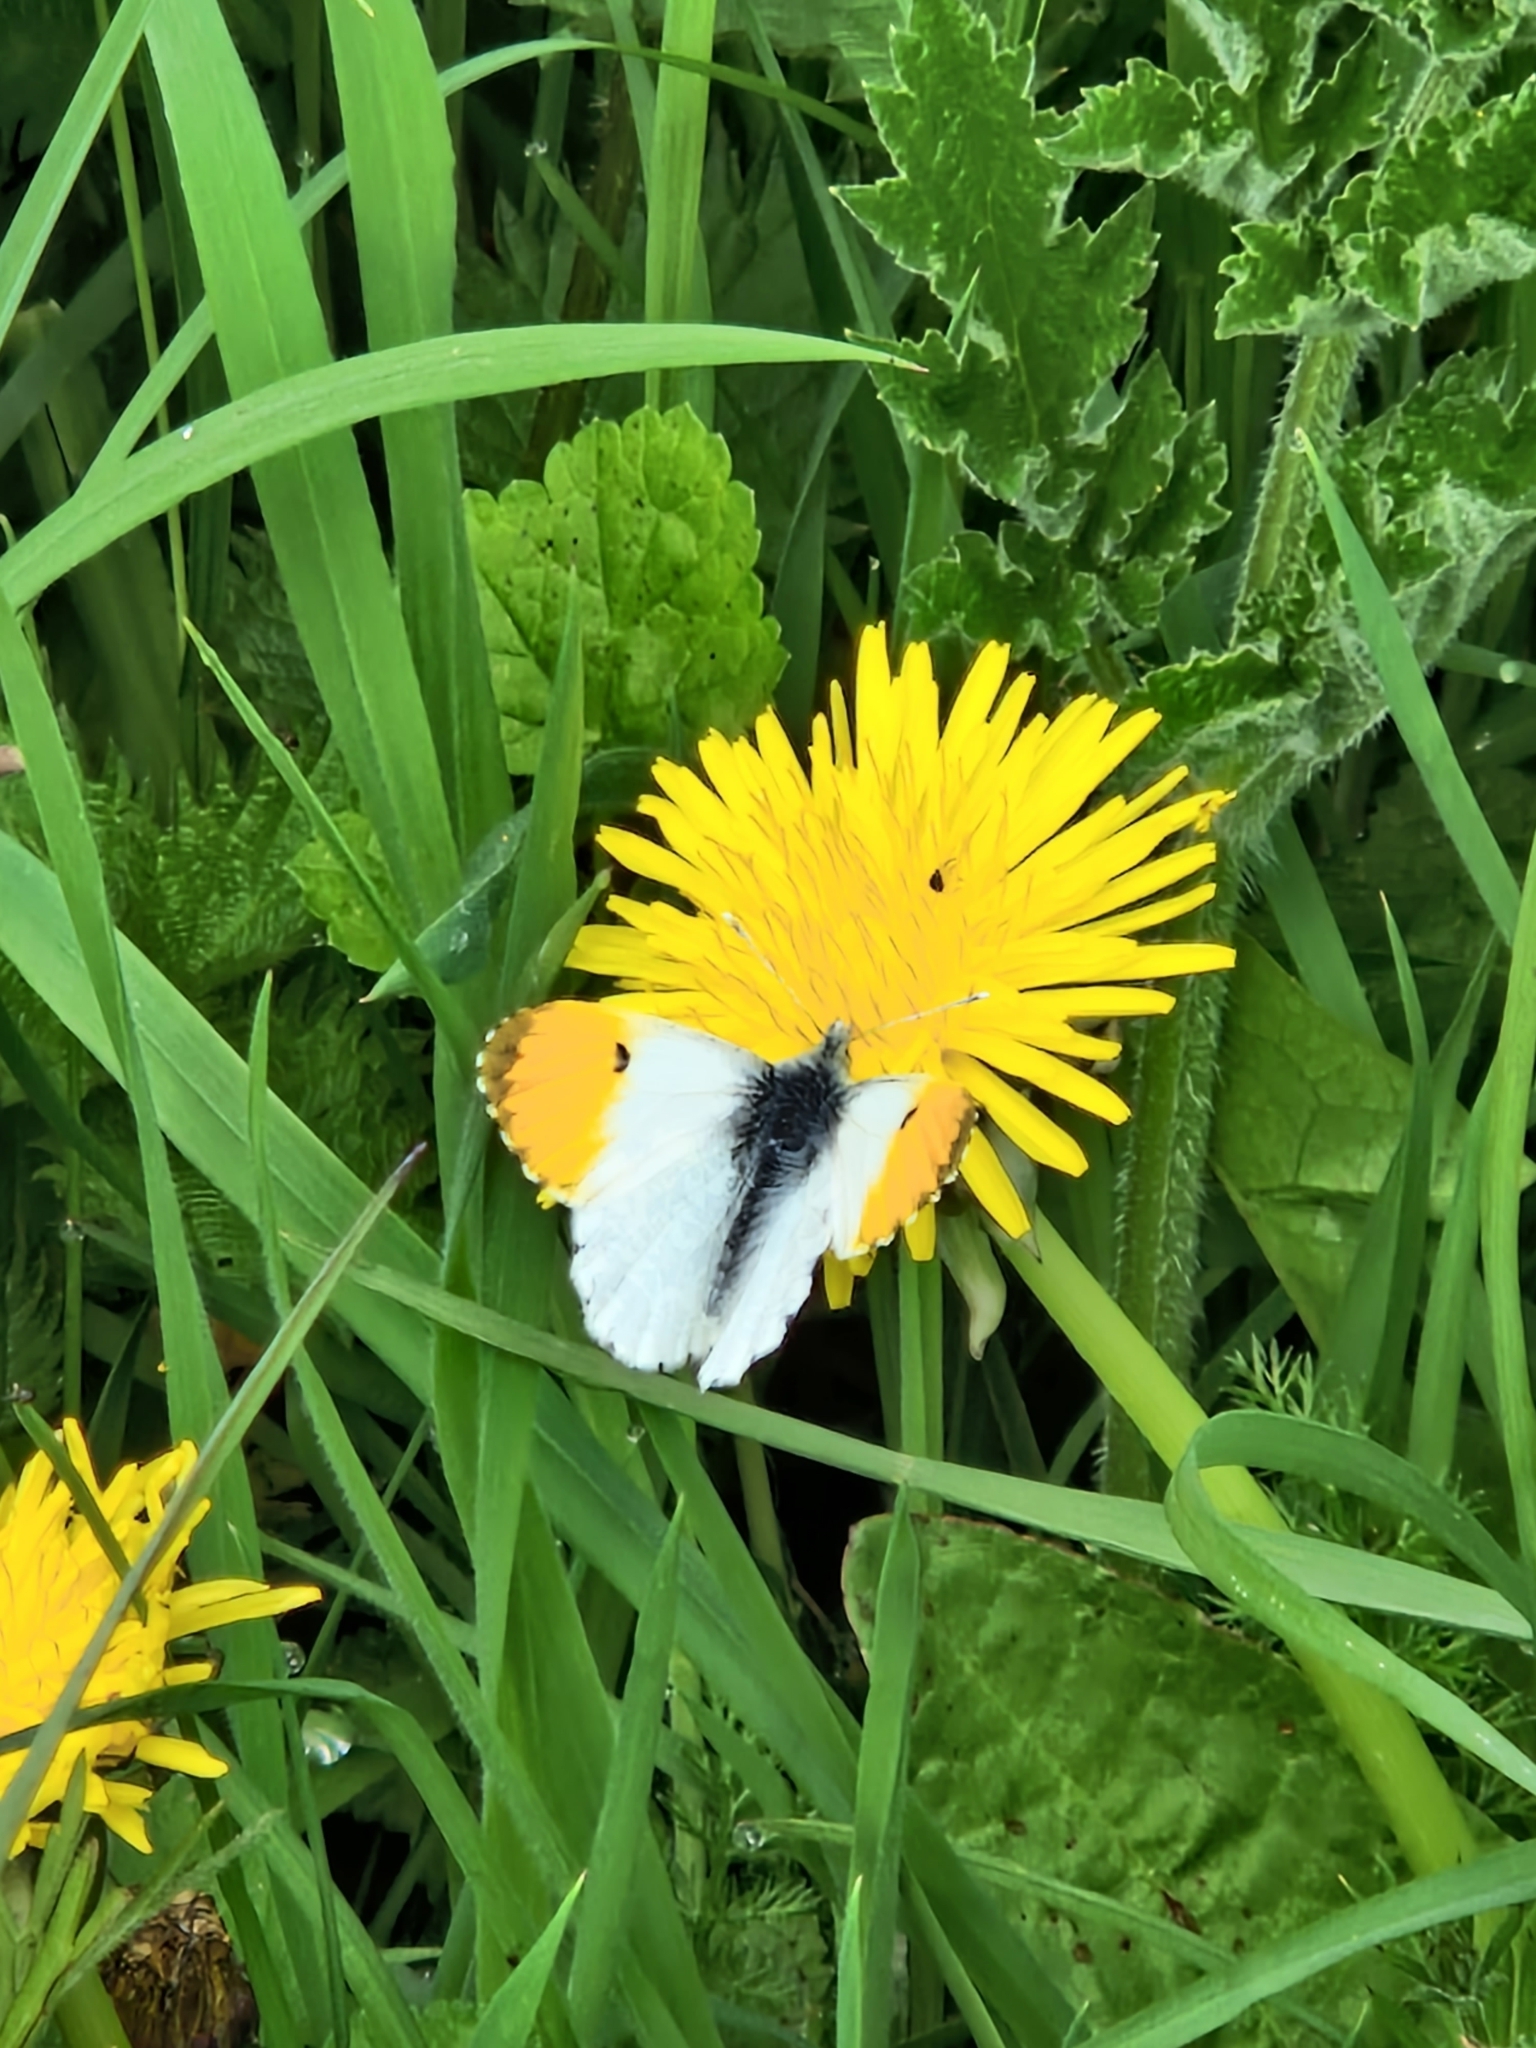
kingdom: Animalia
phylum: Arthropoda
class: Insecta
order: Lepidoptera
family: Pieridae
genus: Anthocharis
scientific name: Anthocharis cardamines
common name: Orange-tip
